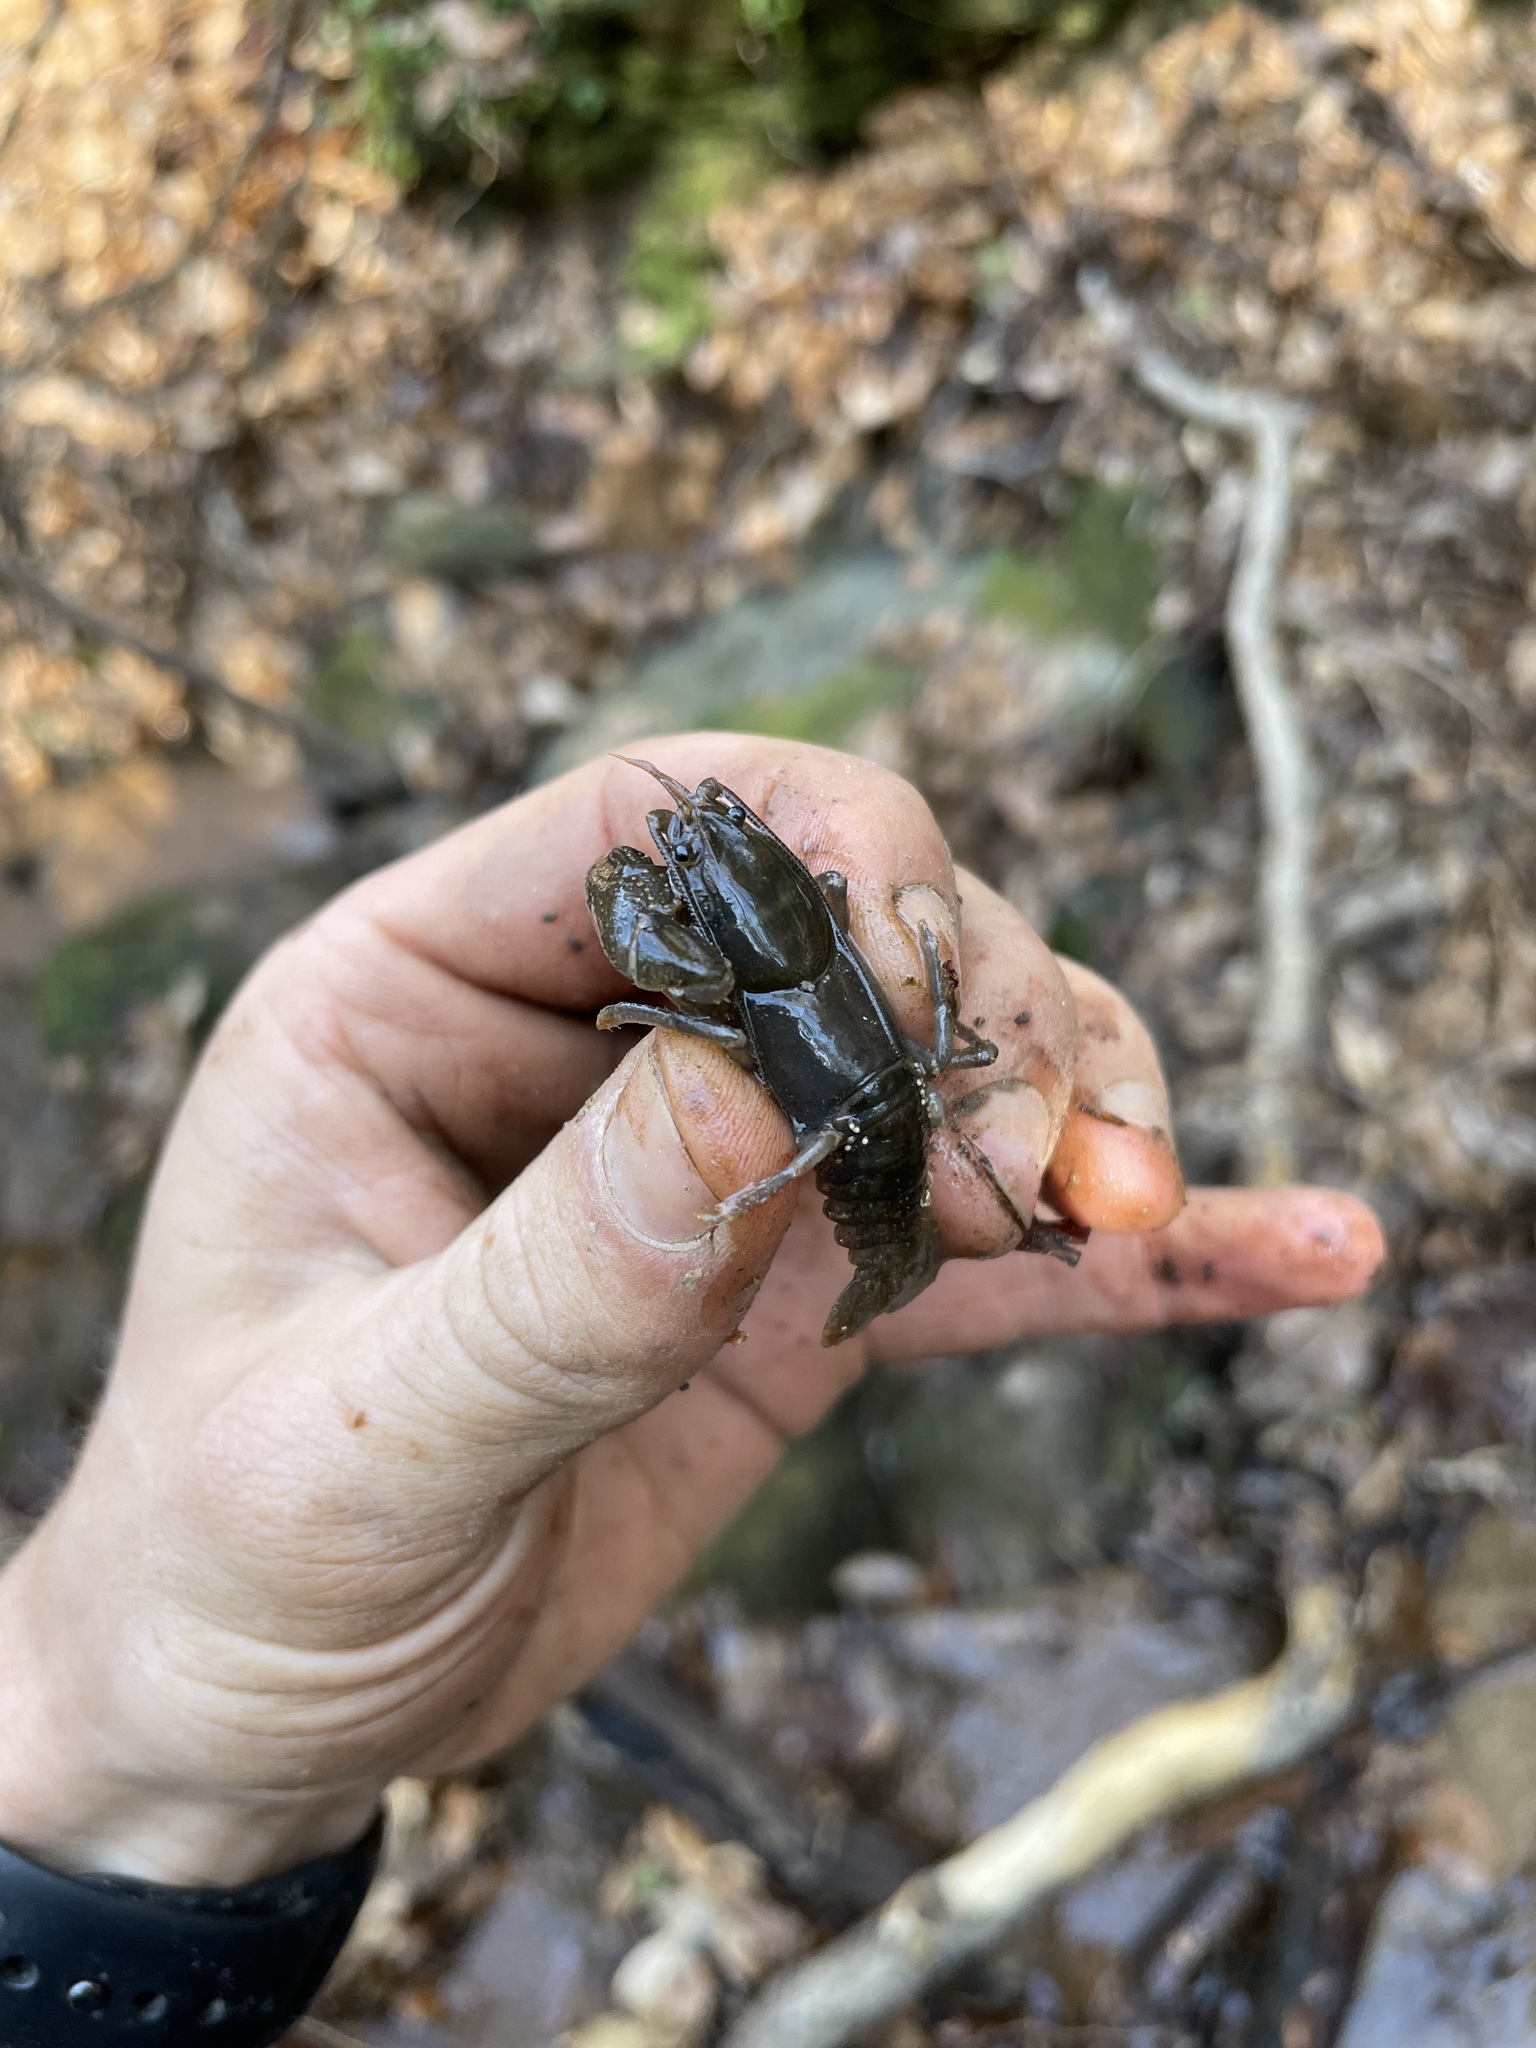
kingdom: Animalia
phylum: Arthropoda
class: Malacostraca
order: Decapoda
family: Cambaridae
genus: Cambarus
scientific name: Cambarus latimanus
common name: Variable crayfish
